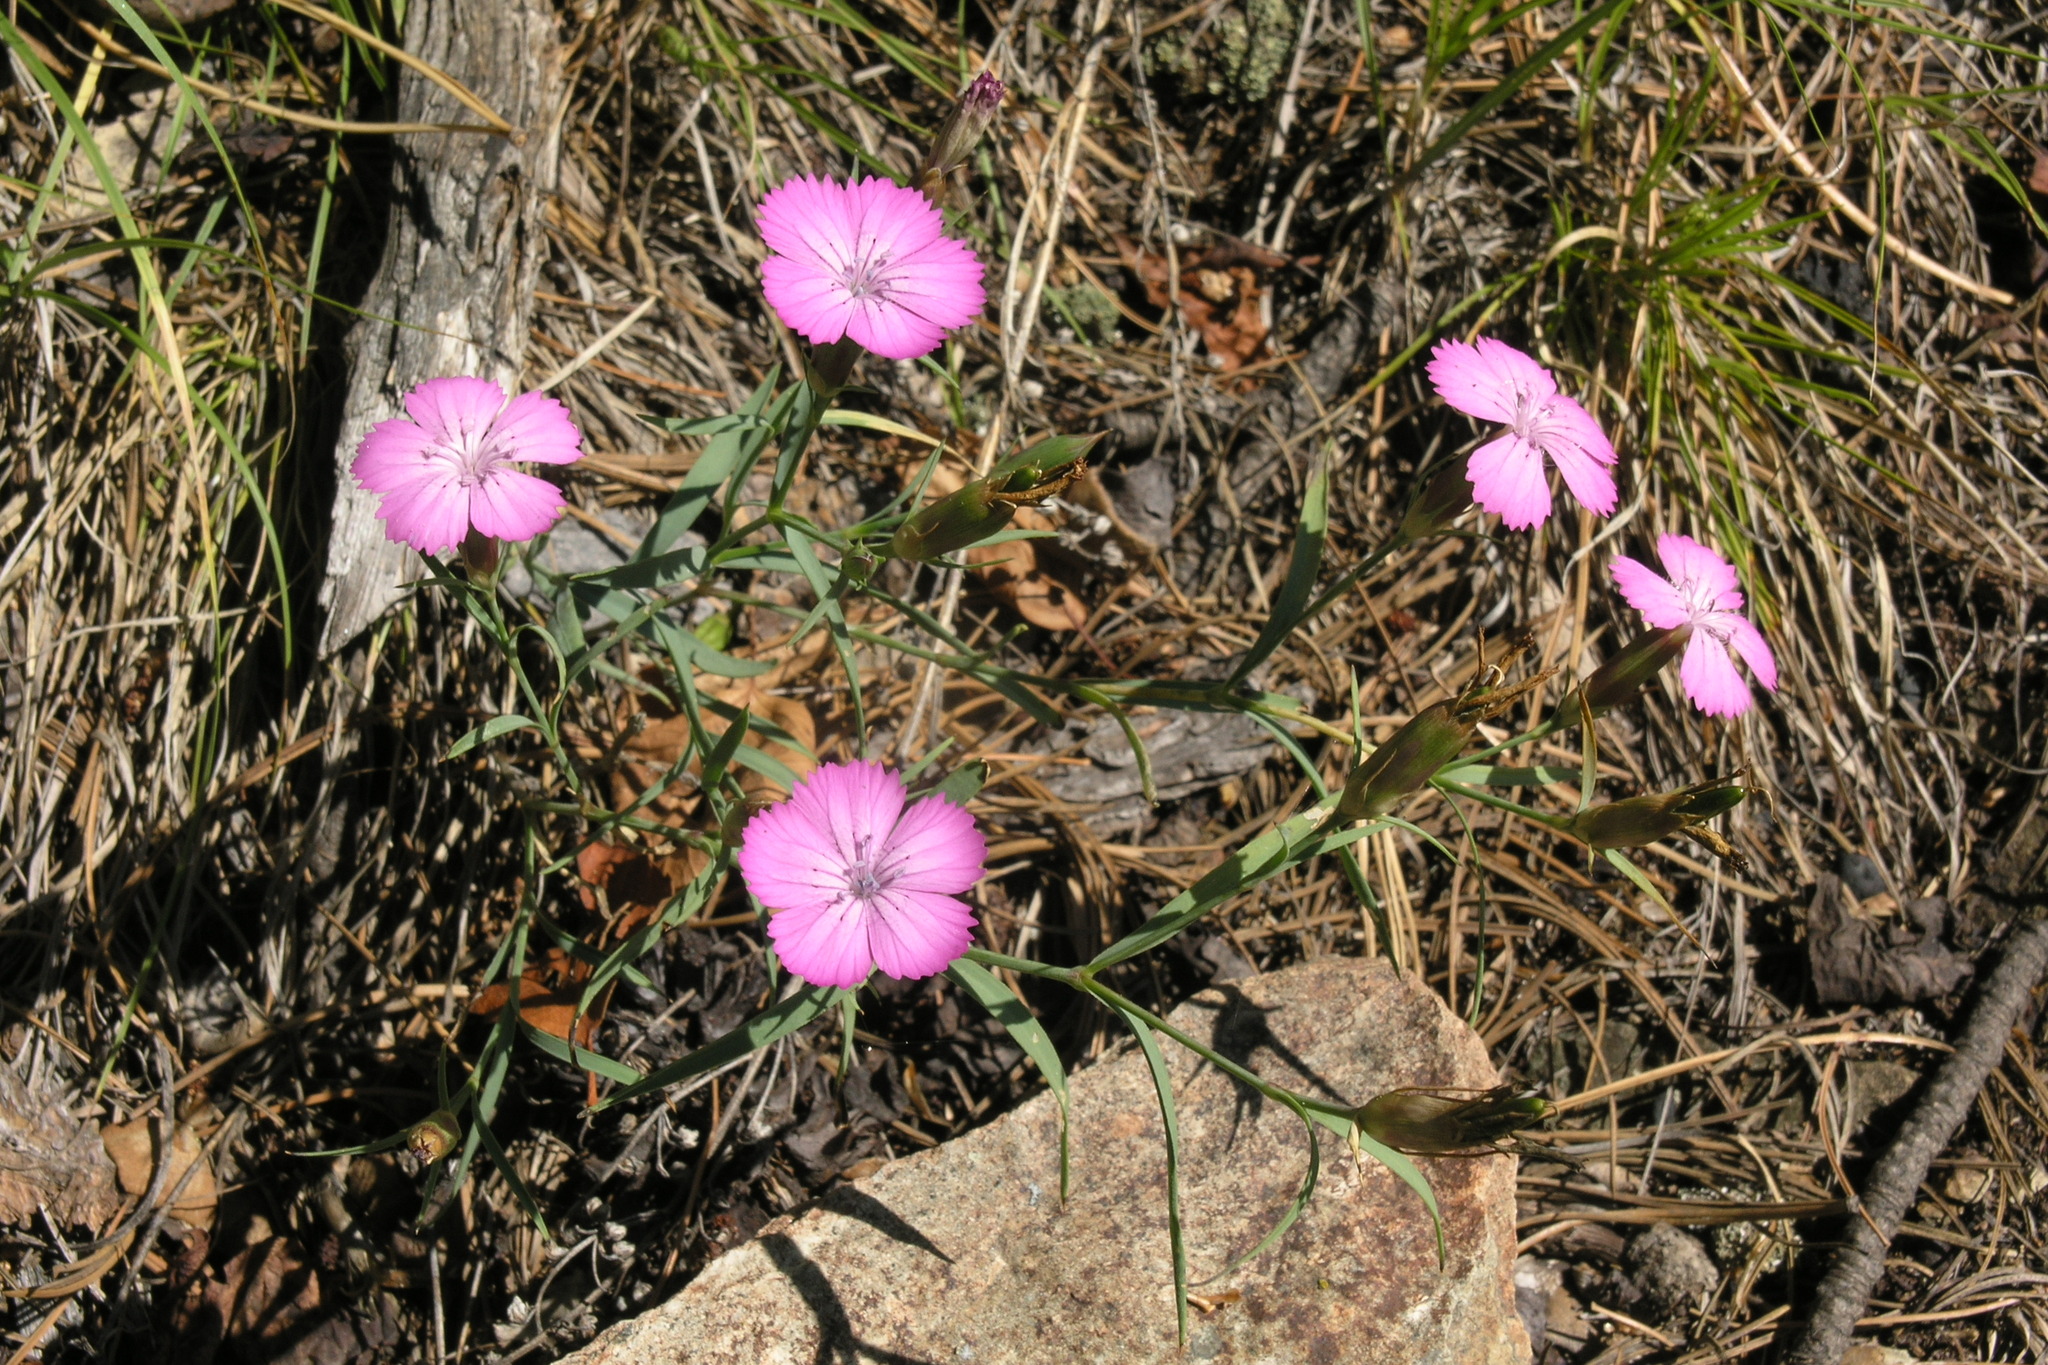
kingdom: Plantae
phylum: Tracheophyta
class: Magnoliopsida
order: Caryophyllales
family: Caryophyllaceae
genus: Dianthus
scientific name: Dianthus chinensis
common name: Rainbow pink
